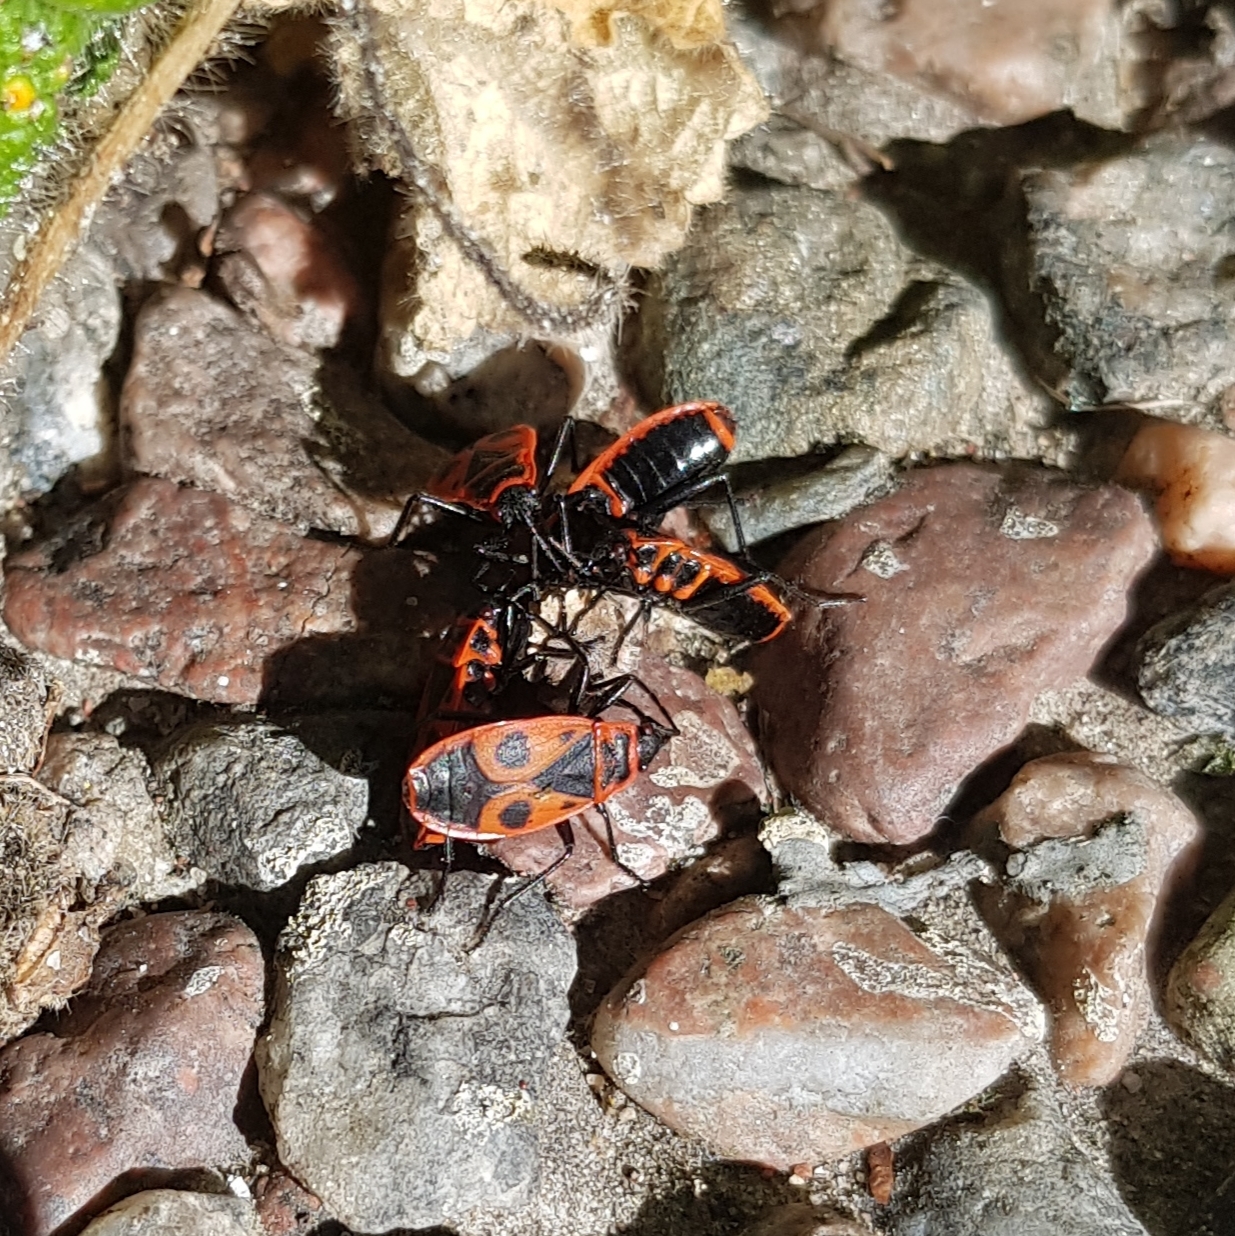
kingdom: Animalia
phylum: Arthropoda
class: Insecta
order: Hemiptera
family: Pyrrhocoridae
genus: Pyrrhocoris
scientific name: Pyrrhocoris apterus
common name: Firebug
